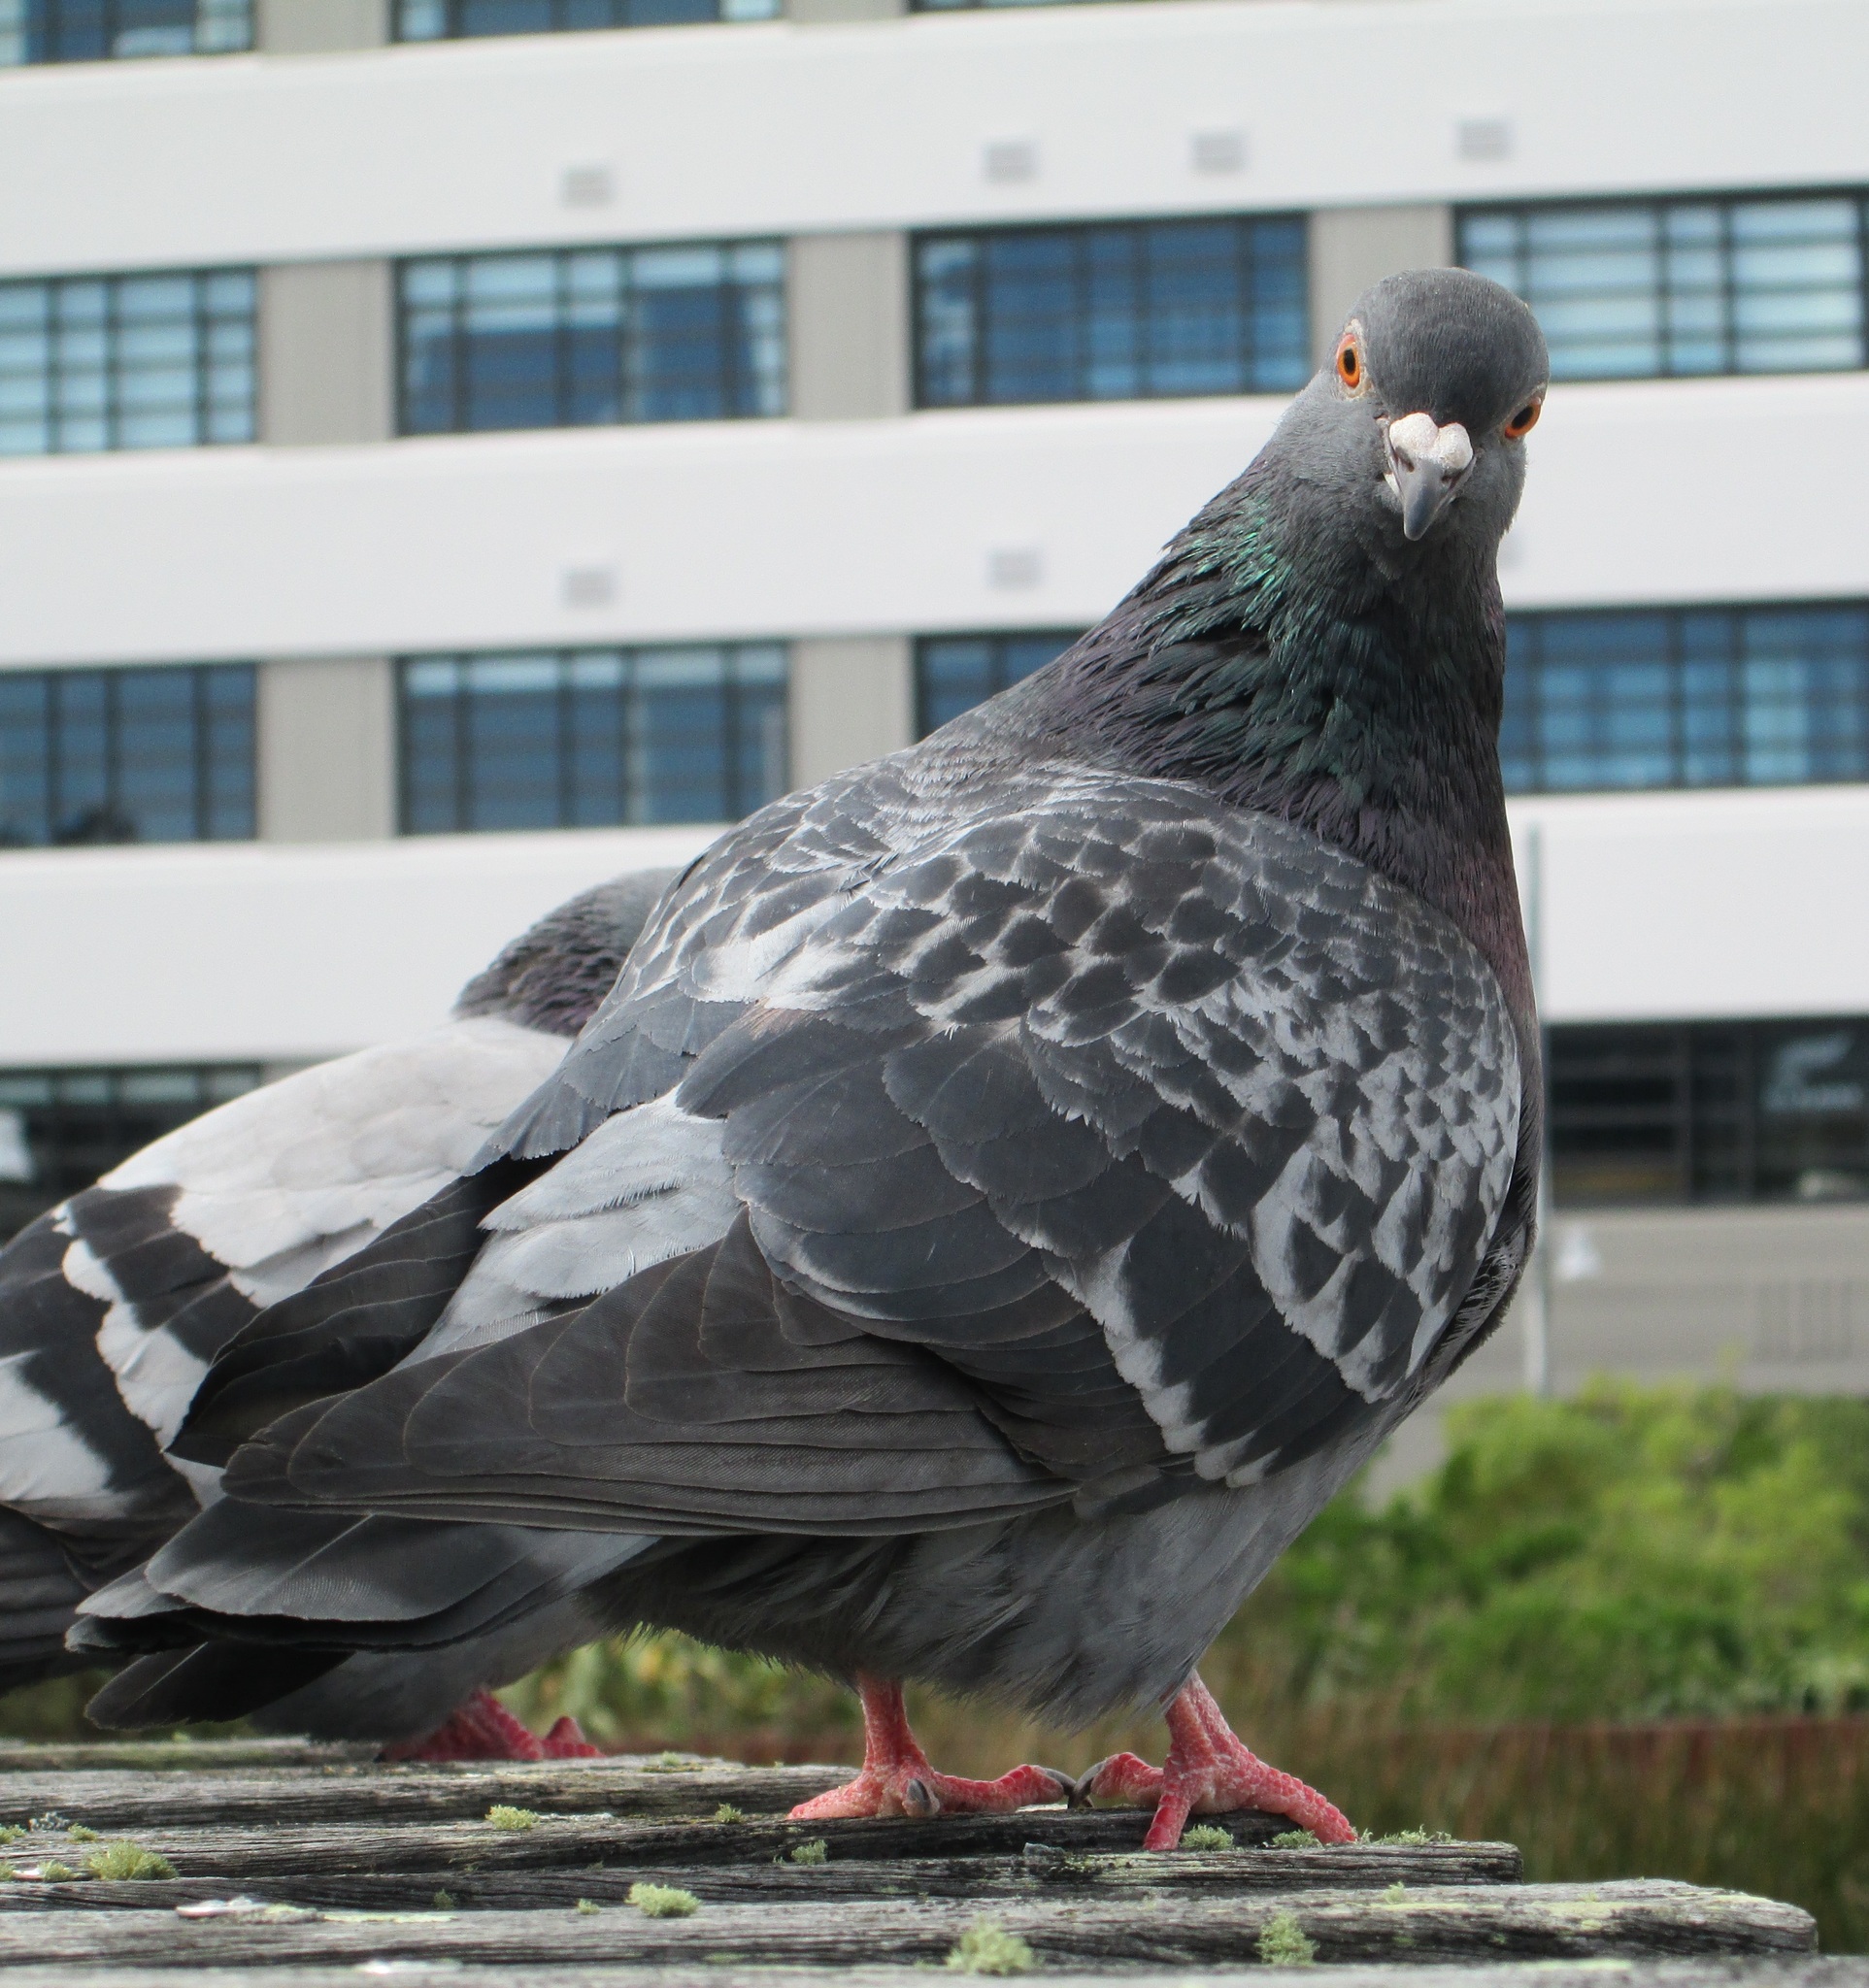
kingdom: Animalia
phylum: Chordata
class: Aves
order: Columbiformes
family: Columbidae
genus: Columba
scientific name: Columba livia
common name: Rock pigeon
